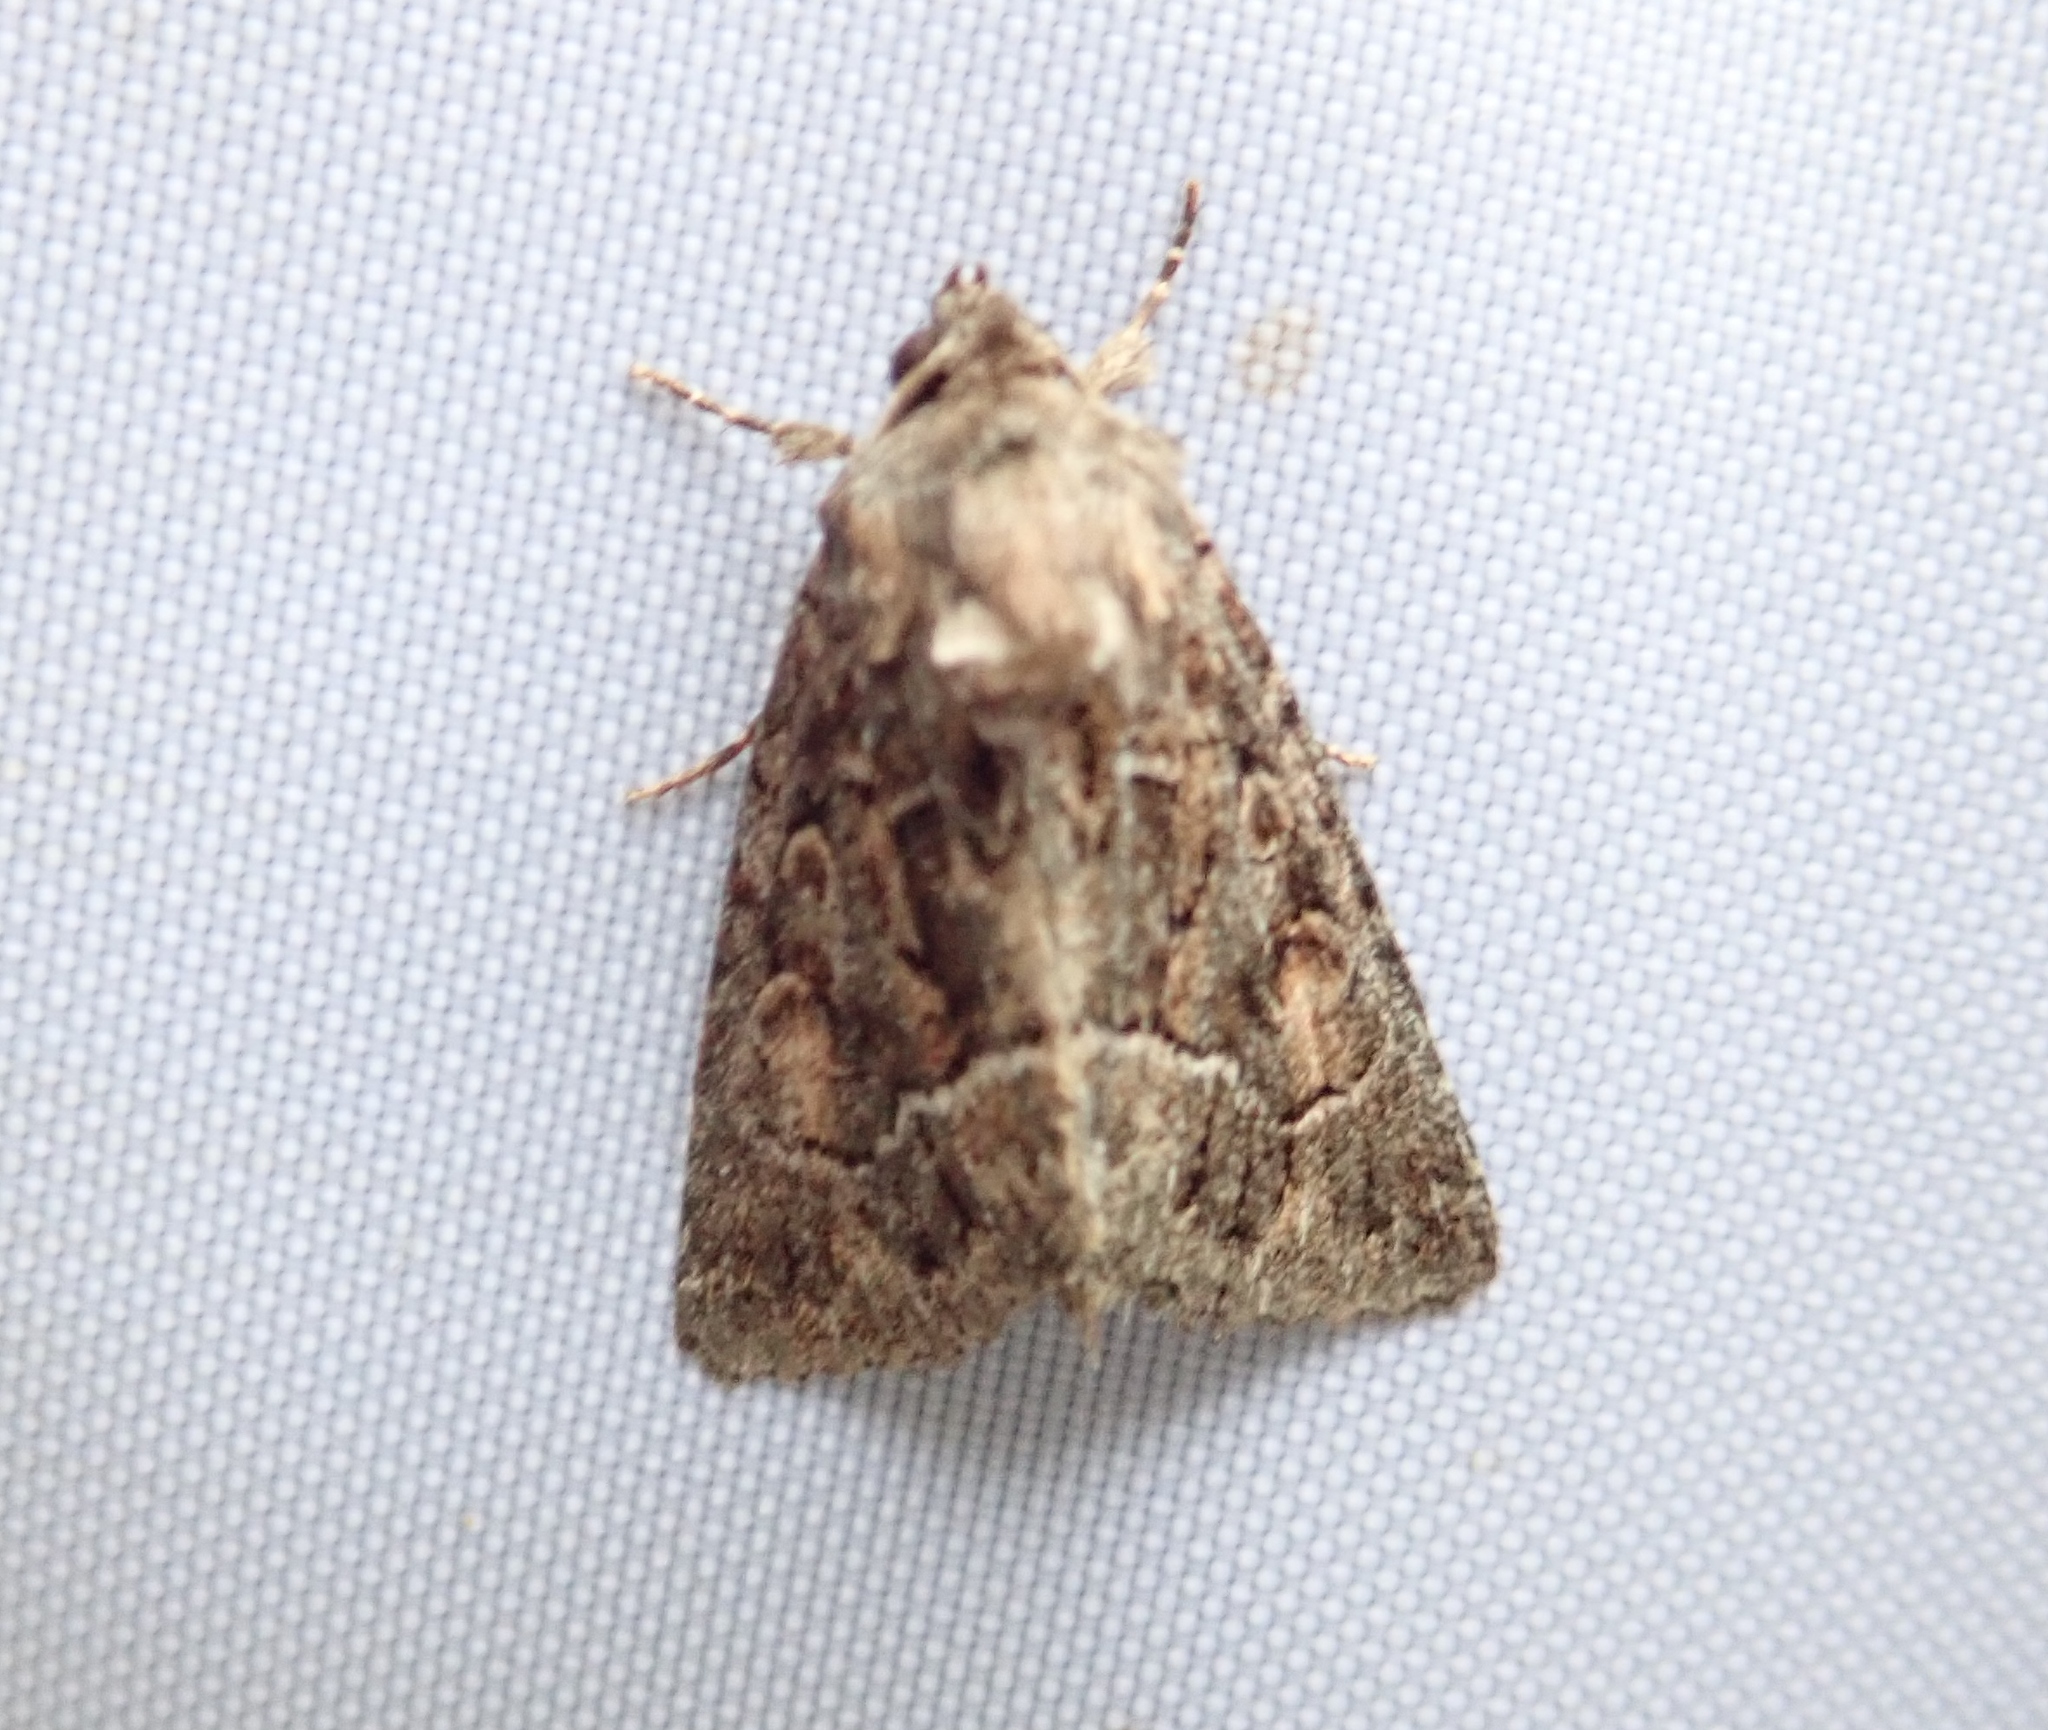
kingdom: Animalia
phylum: Arthropoda
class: Insecta
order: Lepidoptera
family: Noctuidae
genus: Thalpophila
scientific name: Thalpophila matura
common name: Straw underwing
